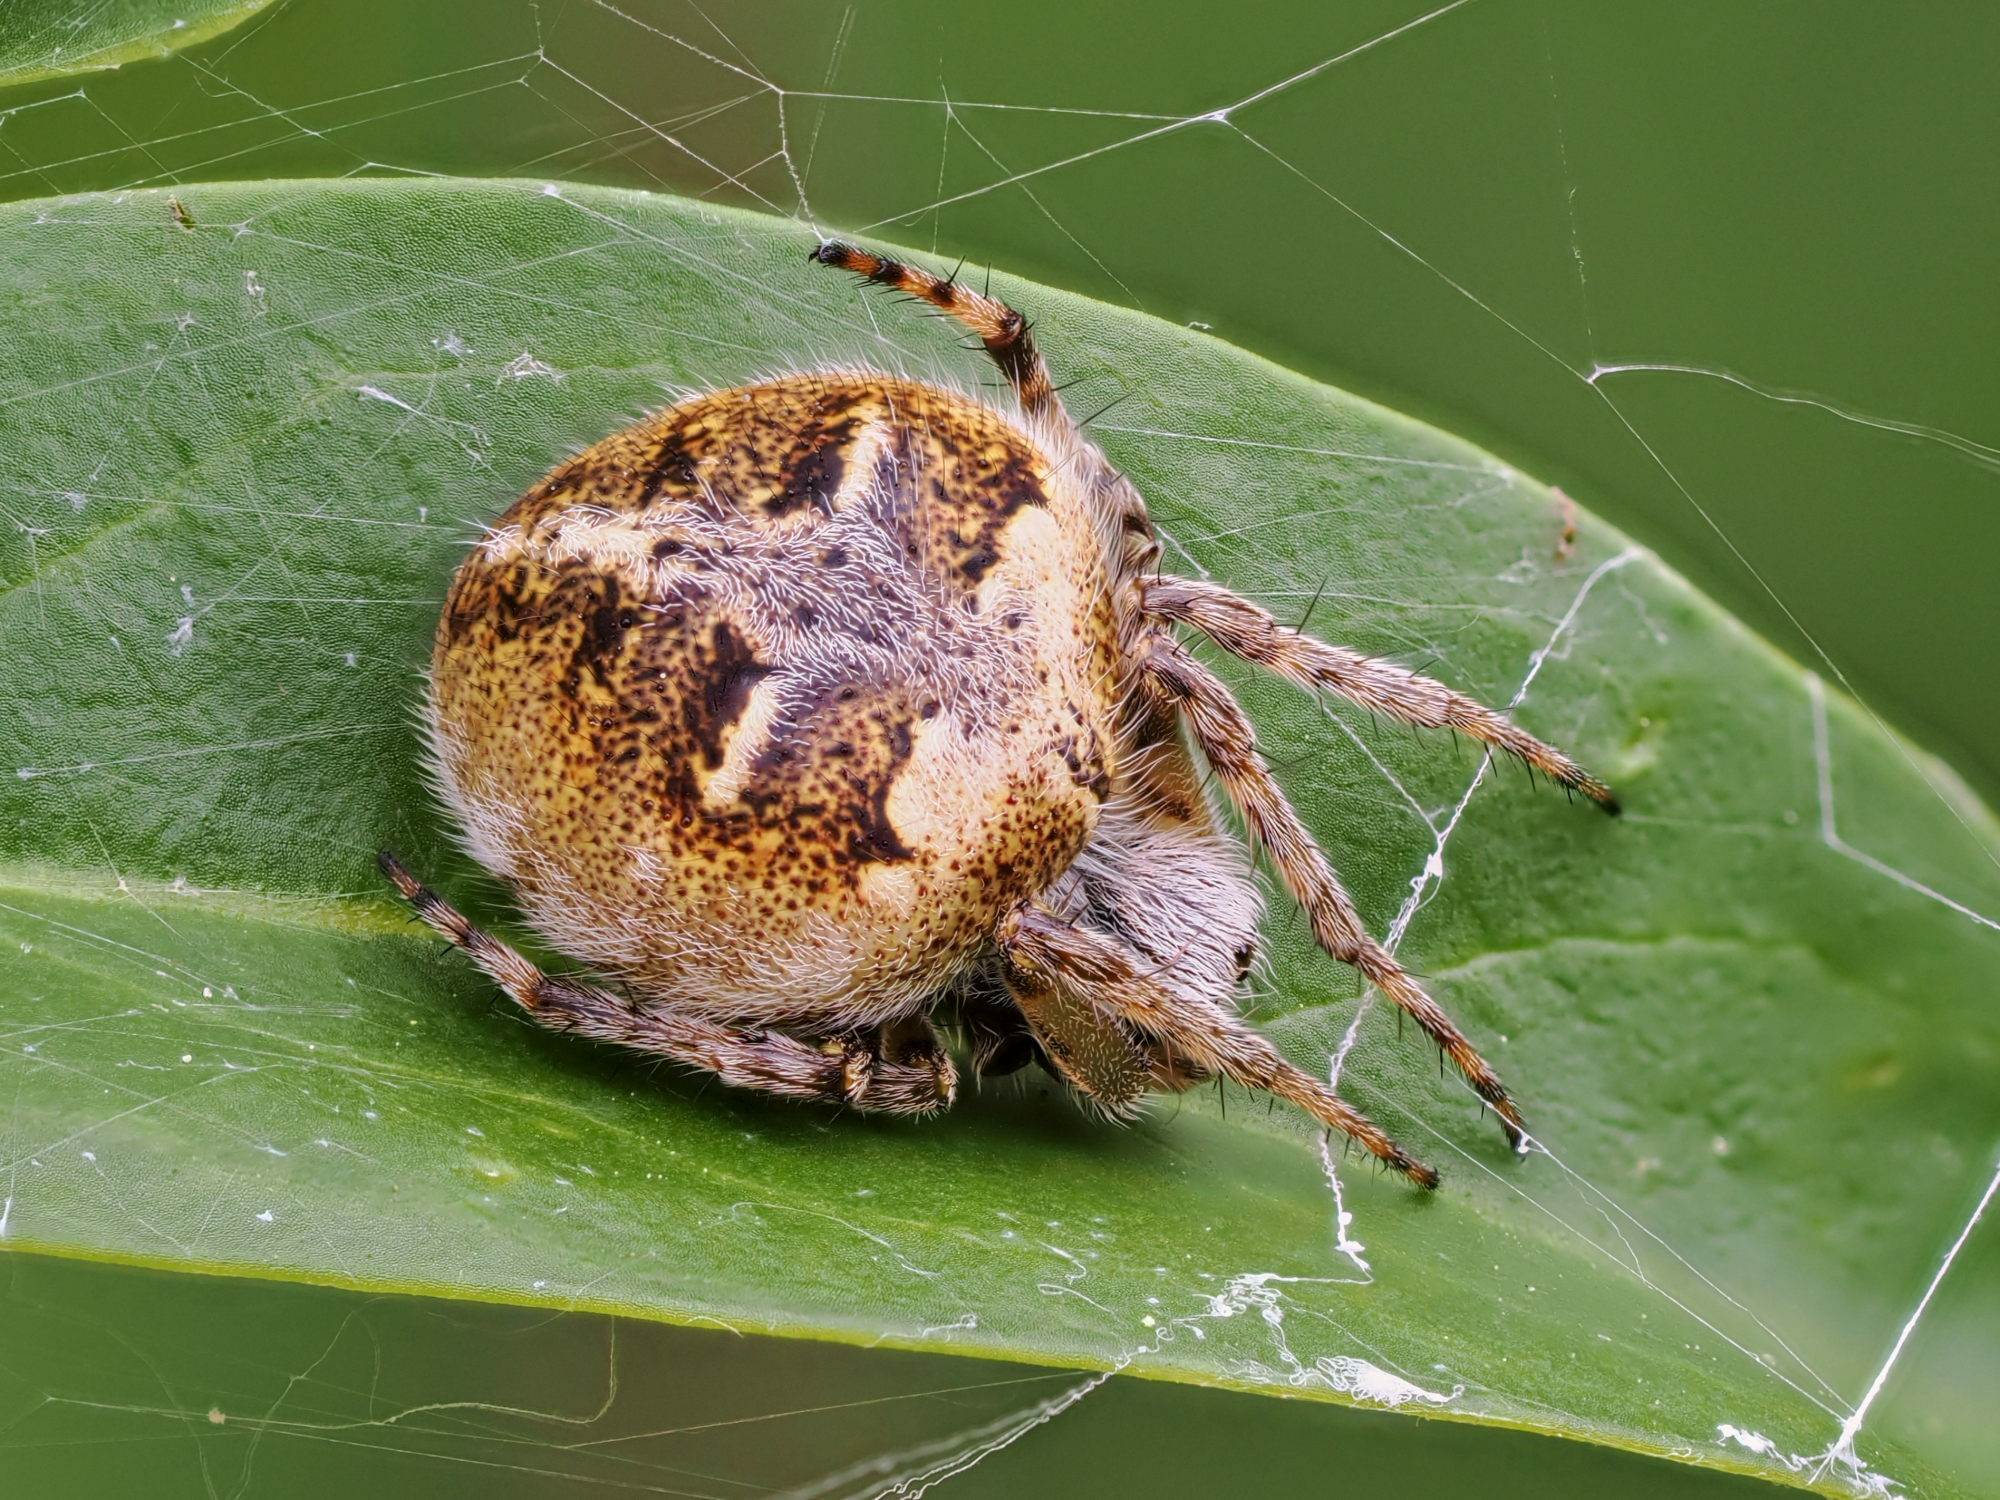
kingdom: Animalia
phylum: Arthropoda
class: Arachnida
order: Araneae
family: Araneidae
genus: Agalenatea
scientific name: Agalenatea redii
